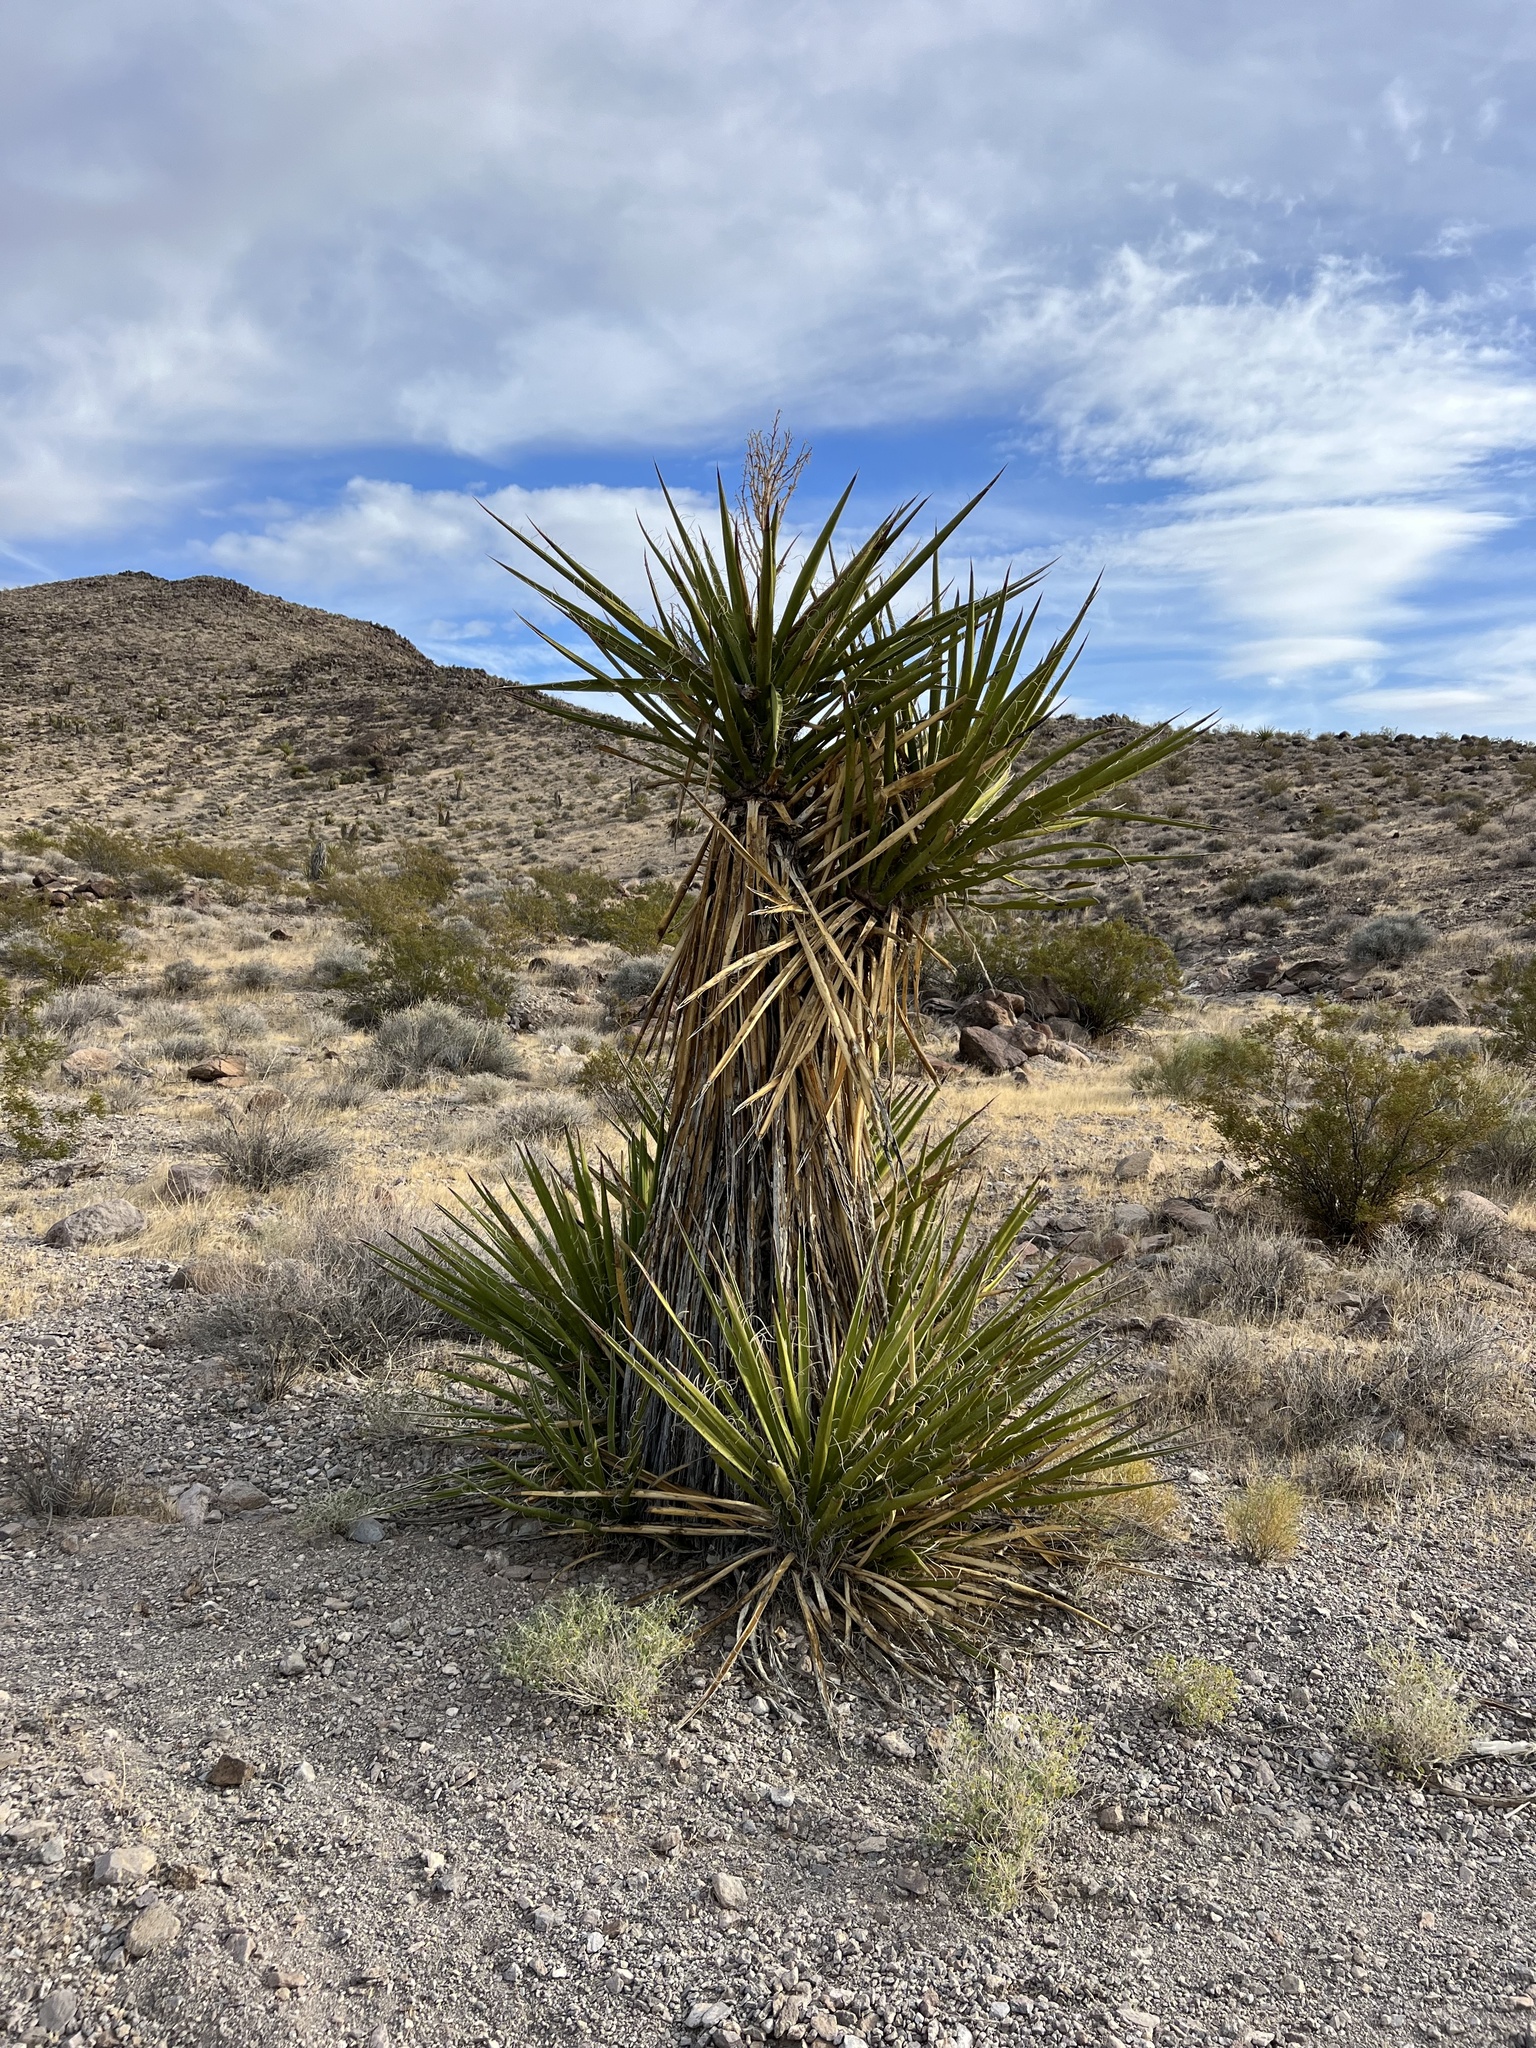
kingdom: Plantae
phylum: Tracheophyta
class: Liliopsida
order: Asparagales
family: Asparagaceae
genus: Yucca
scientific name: Yucca schidigera
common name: Mojave yucca
